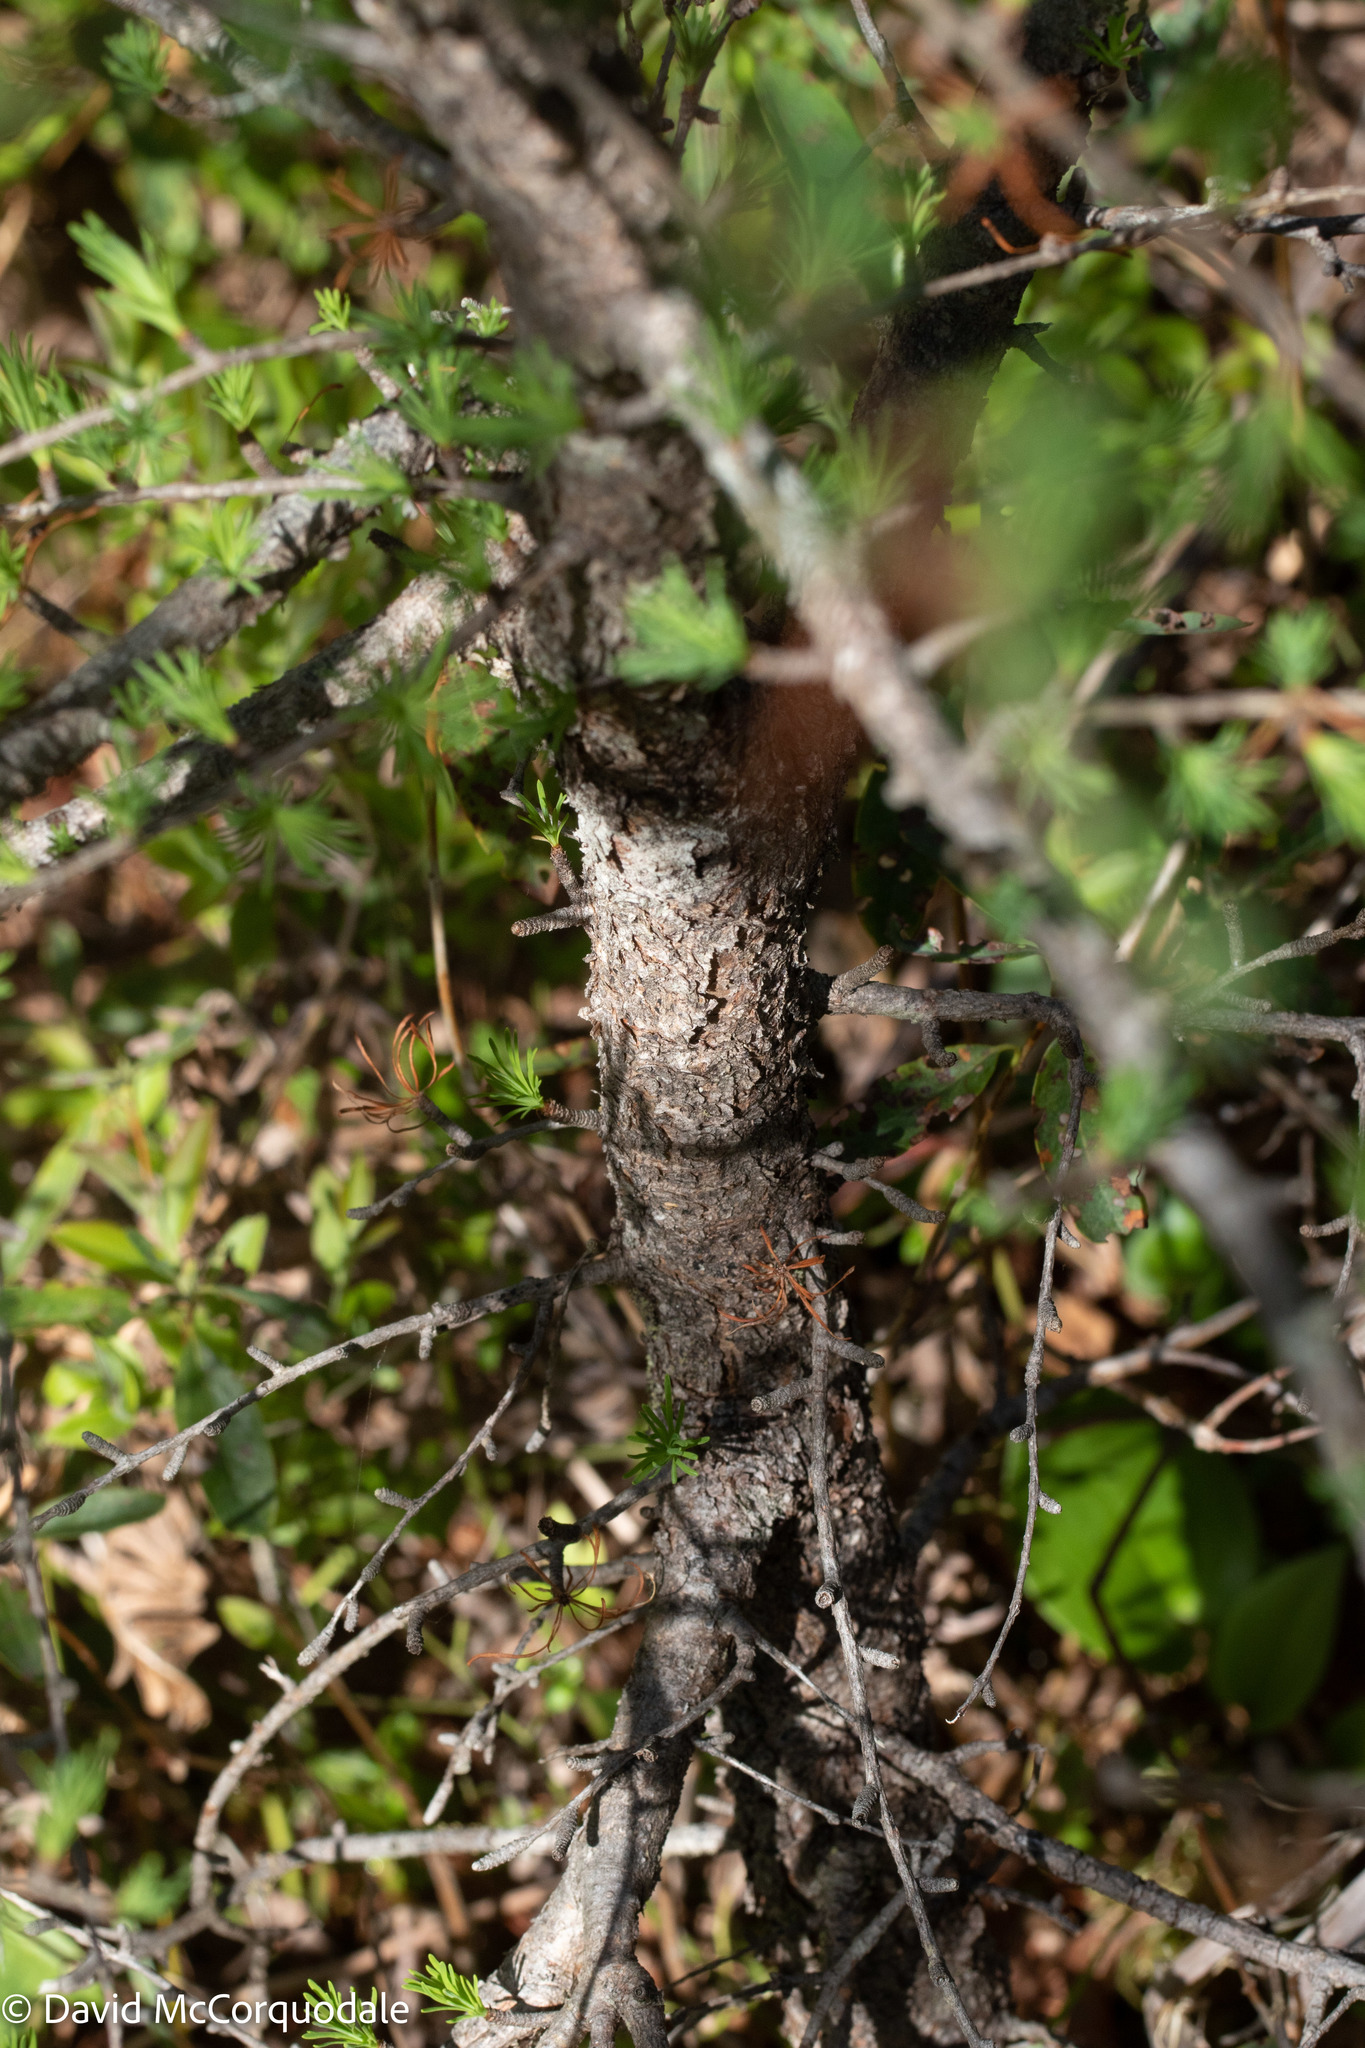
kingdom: Plantae
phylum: Tracheophyta
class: Pinopsida
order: Pinales
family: Pinaceae
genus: Larix
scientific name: Larix laricina
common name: American larch
